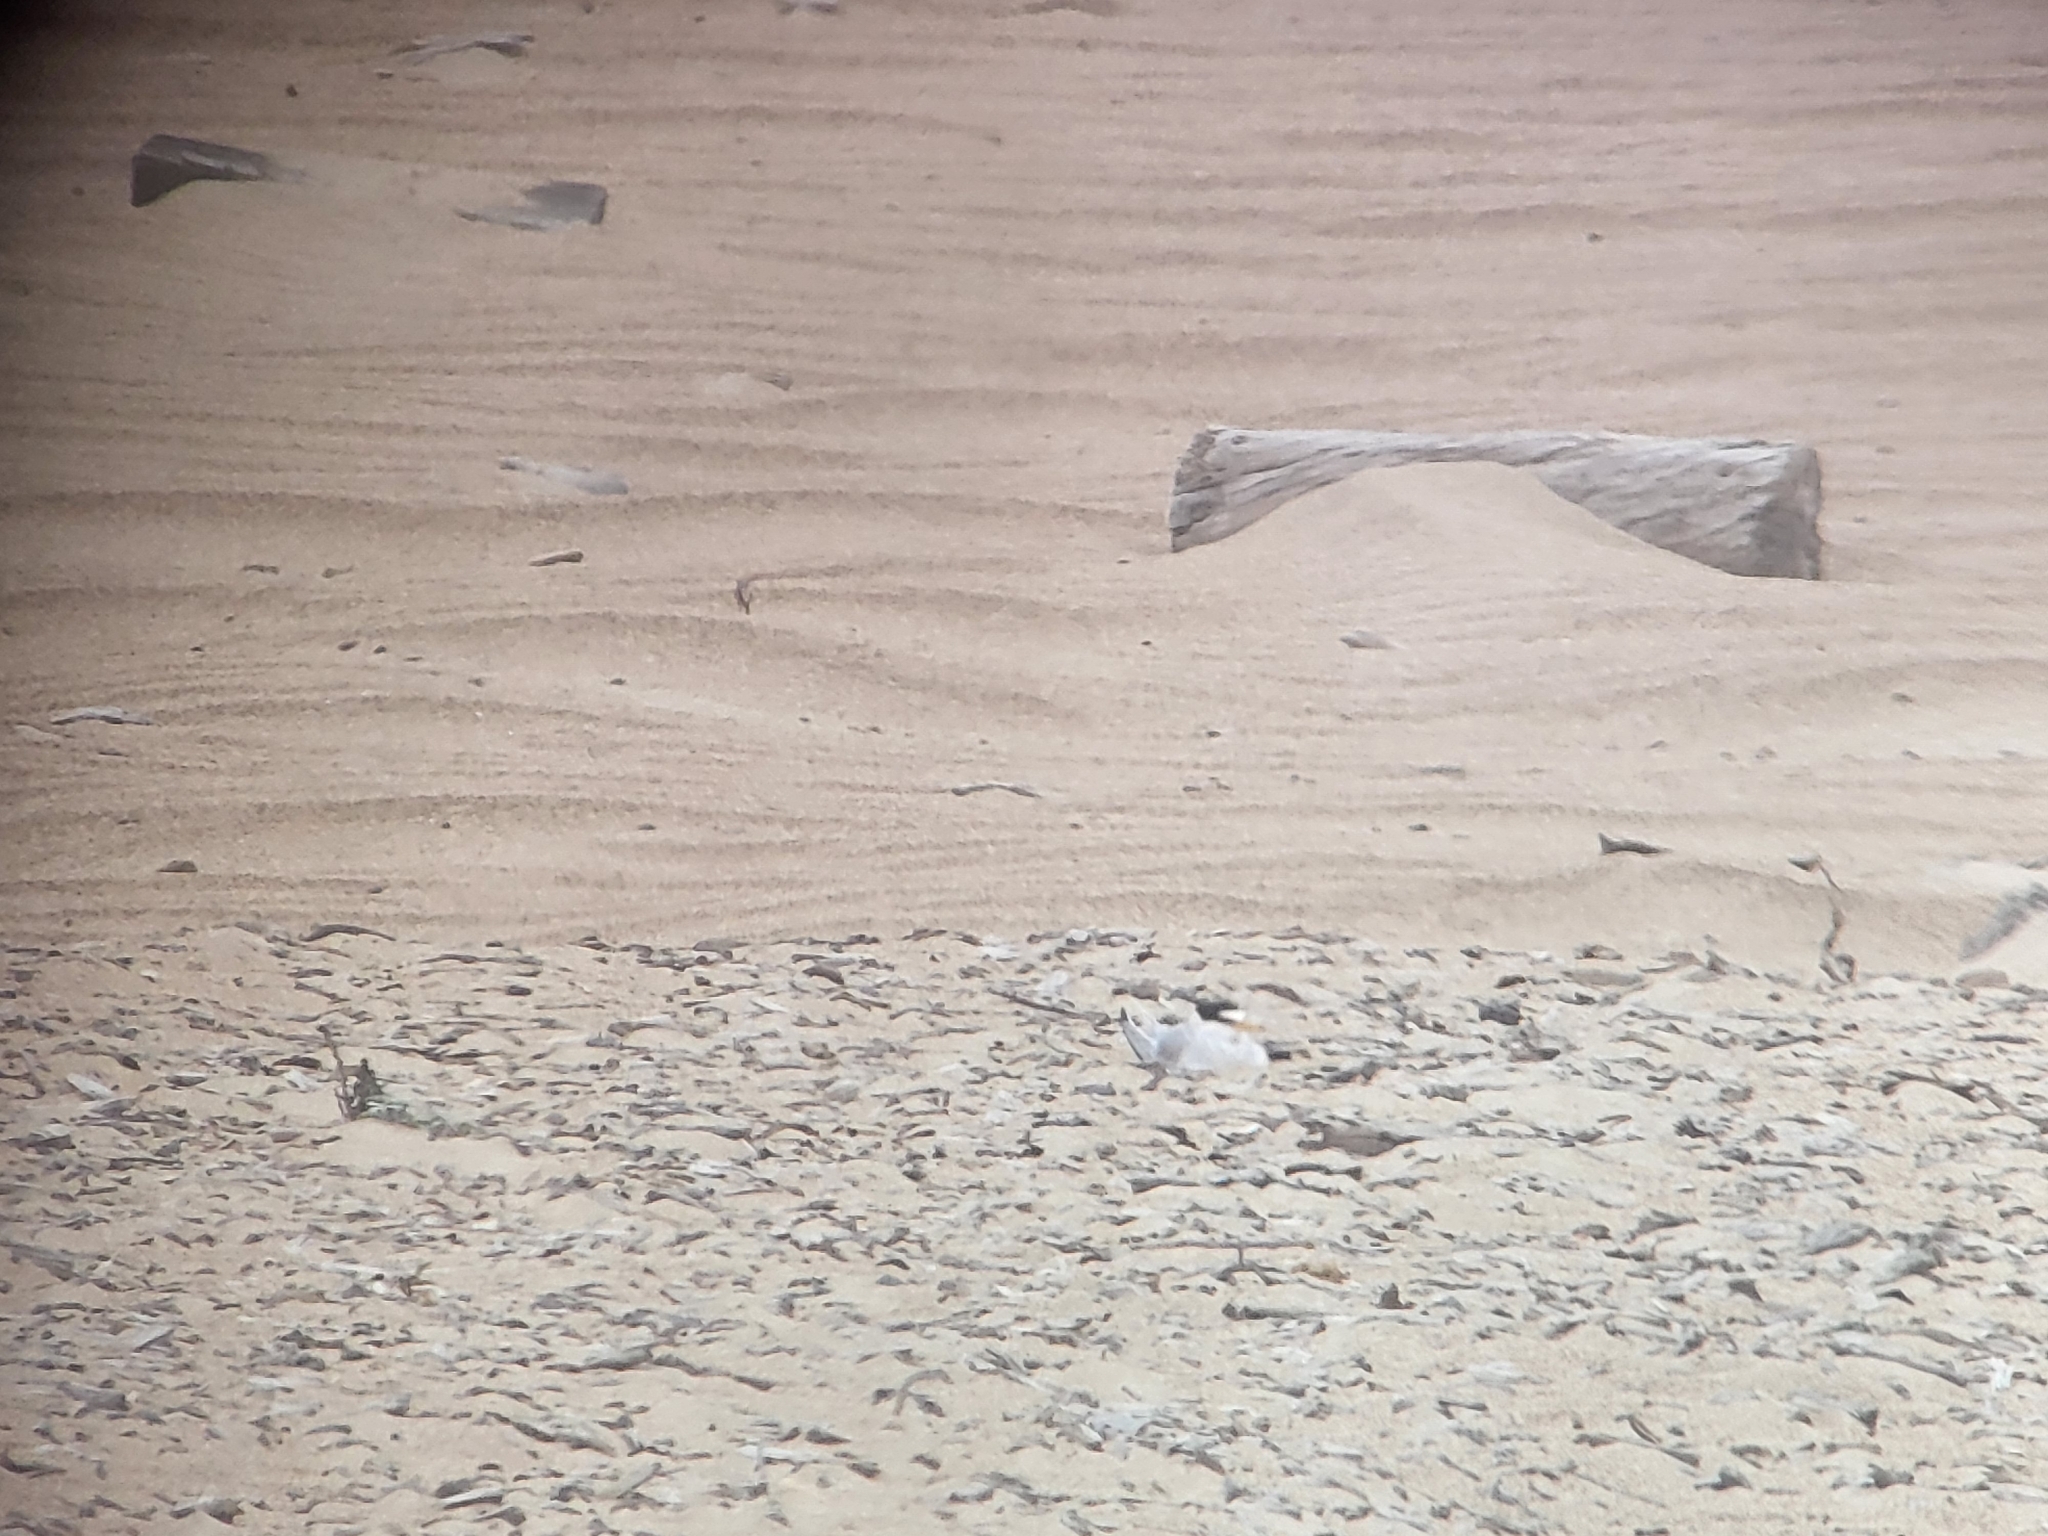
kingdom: Animalia
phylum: Chordata
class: Aves
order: Charadriiformes
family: Laridae
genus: Sternula
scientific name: Sternula antillarum
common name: Least tern
